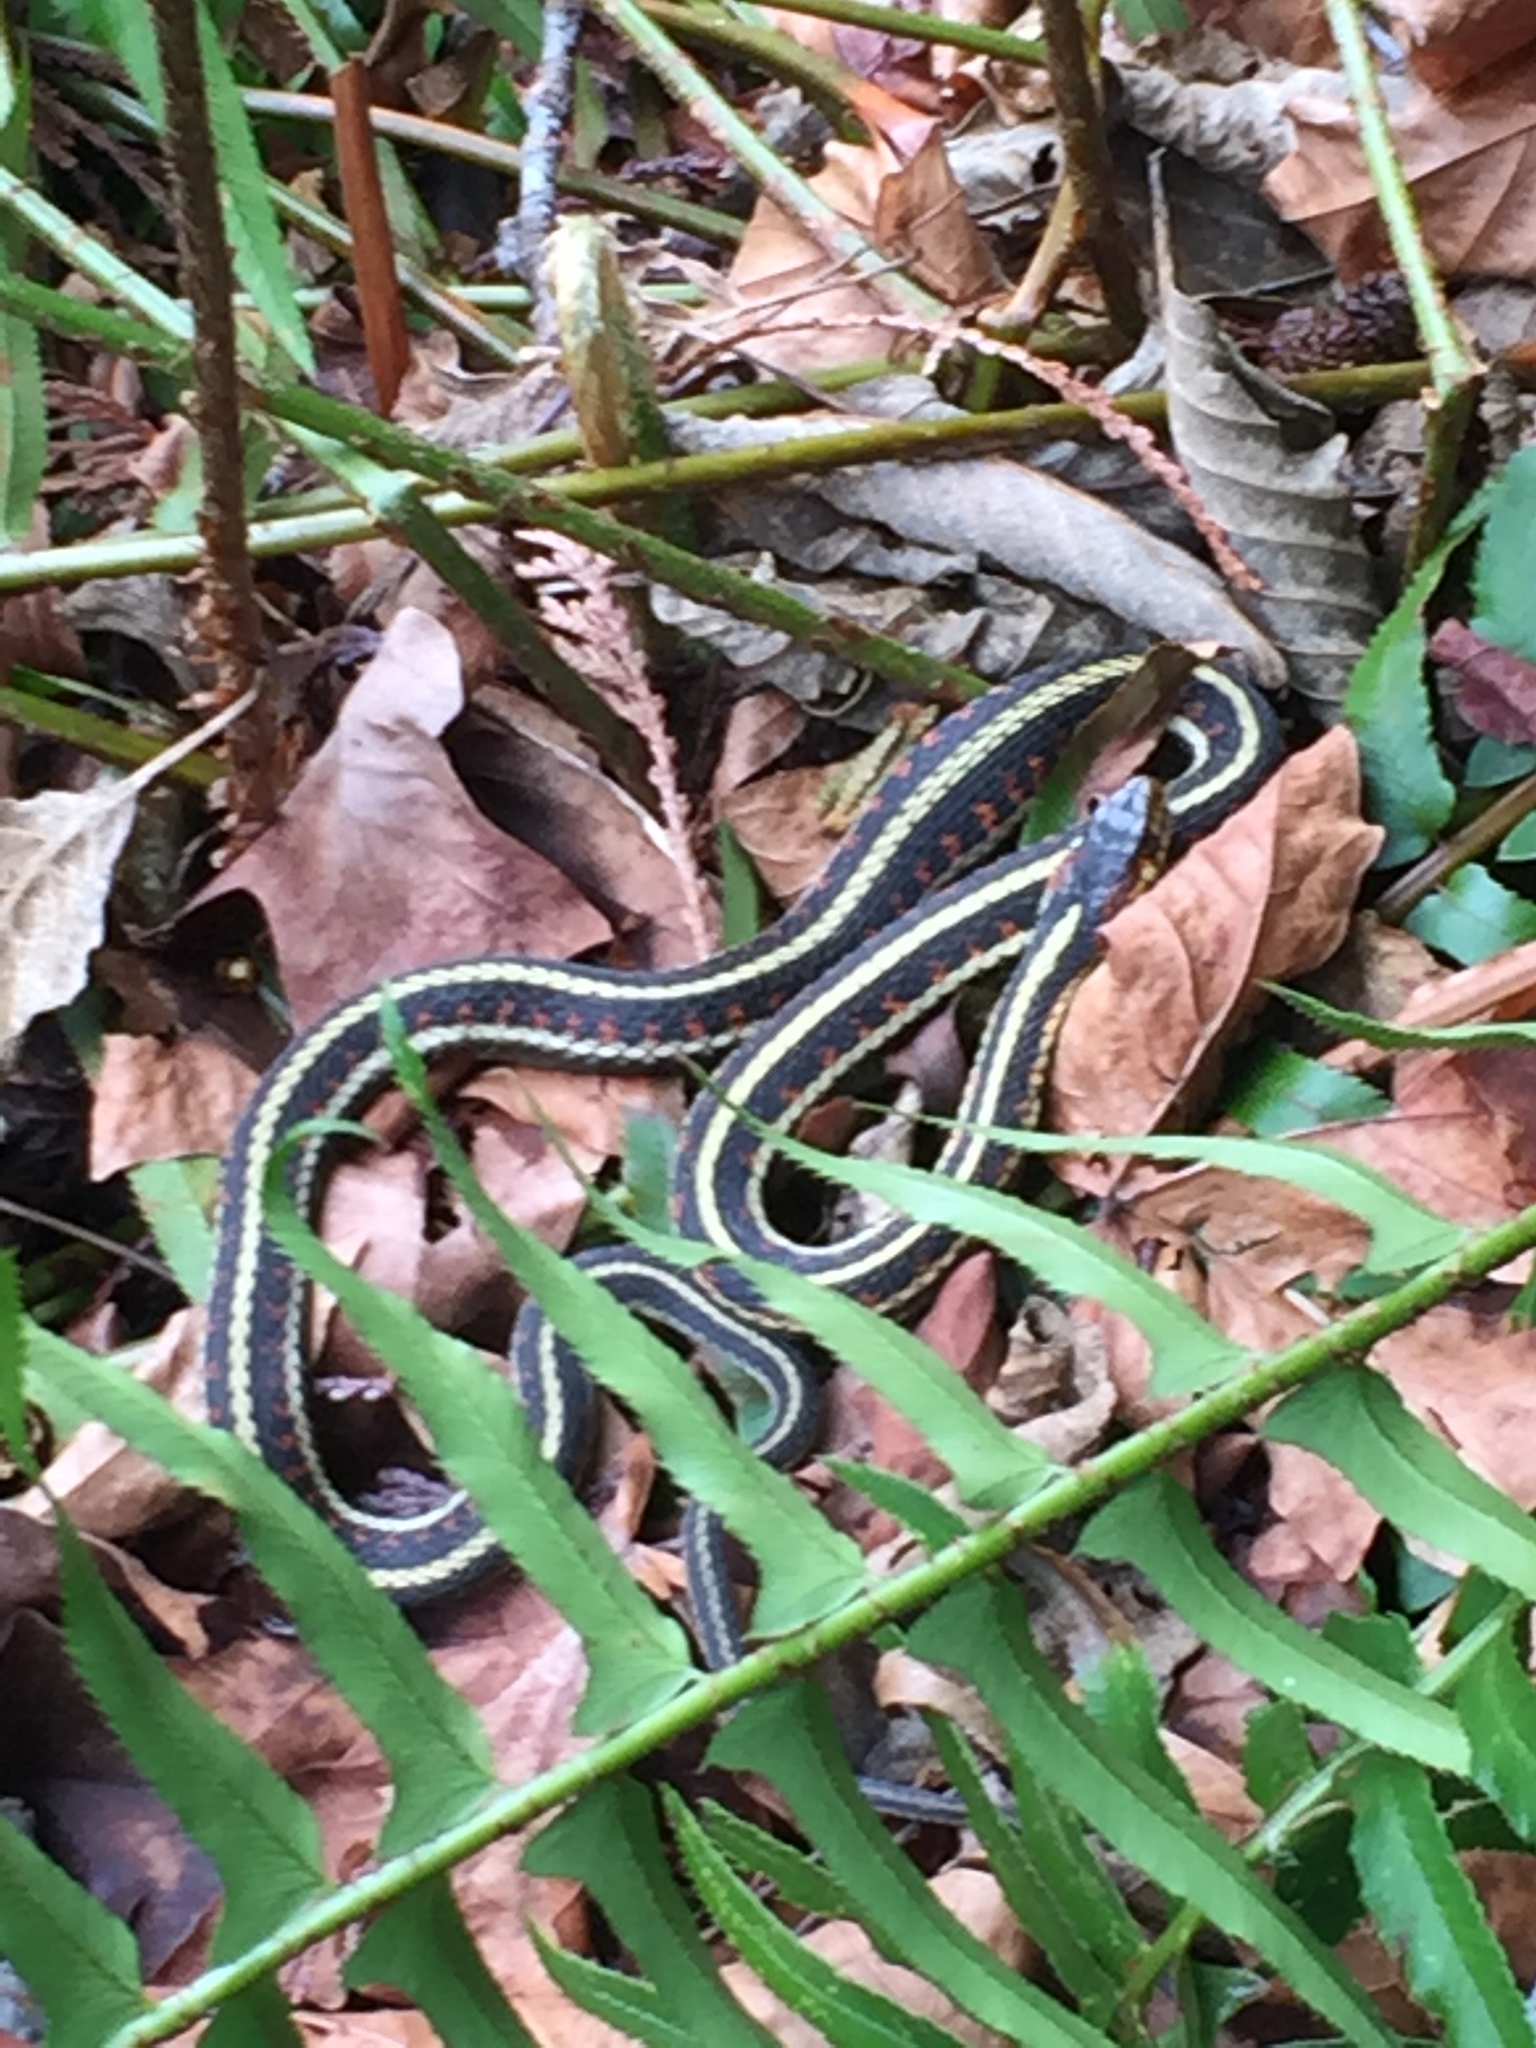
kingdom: Animalia
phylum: Chordata
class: Squamata
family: Colubridae
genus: Thamnophis
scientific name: Thamnophis sirtalis
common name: Common garter snake
